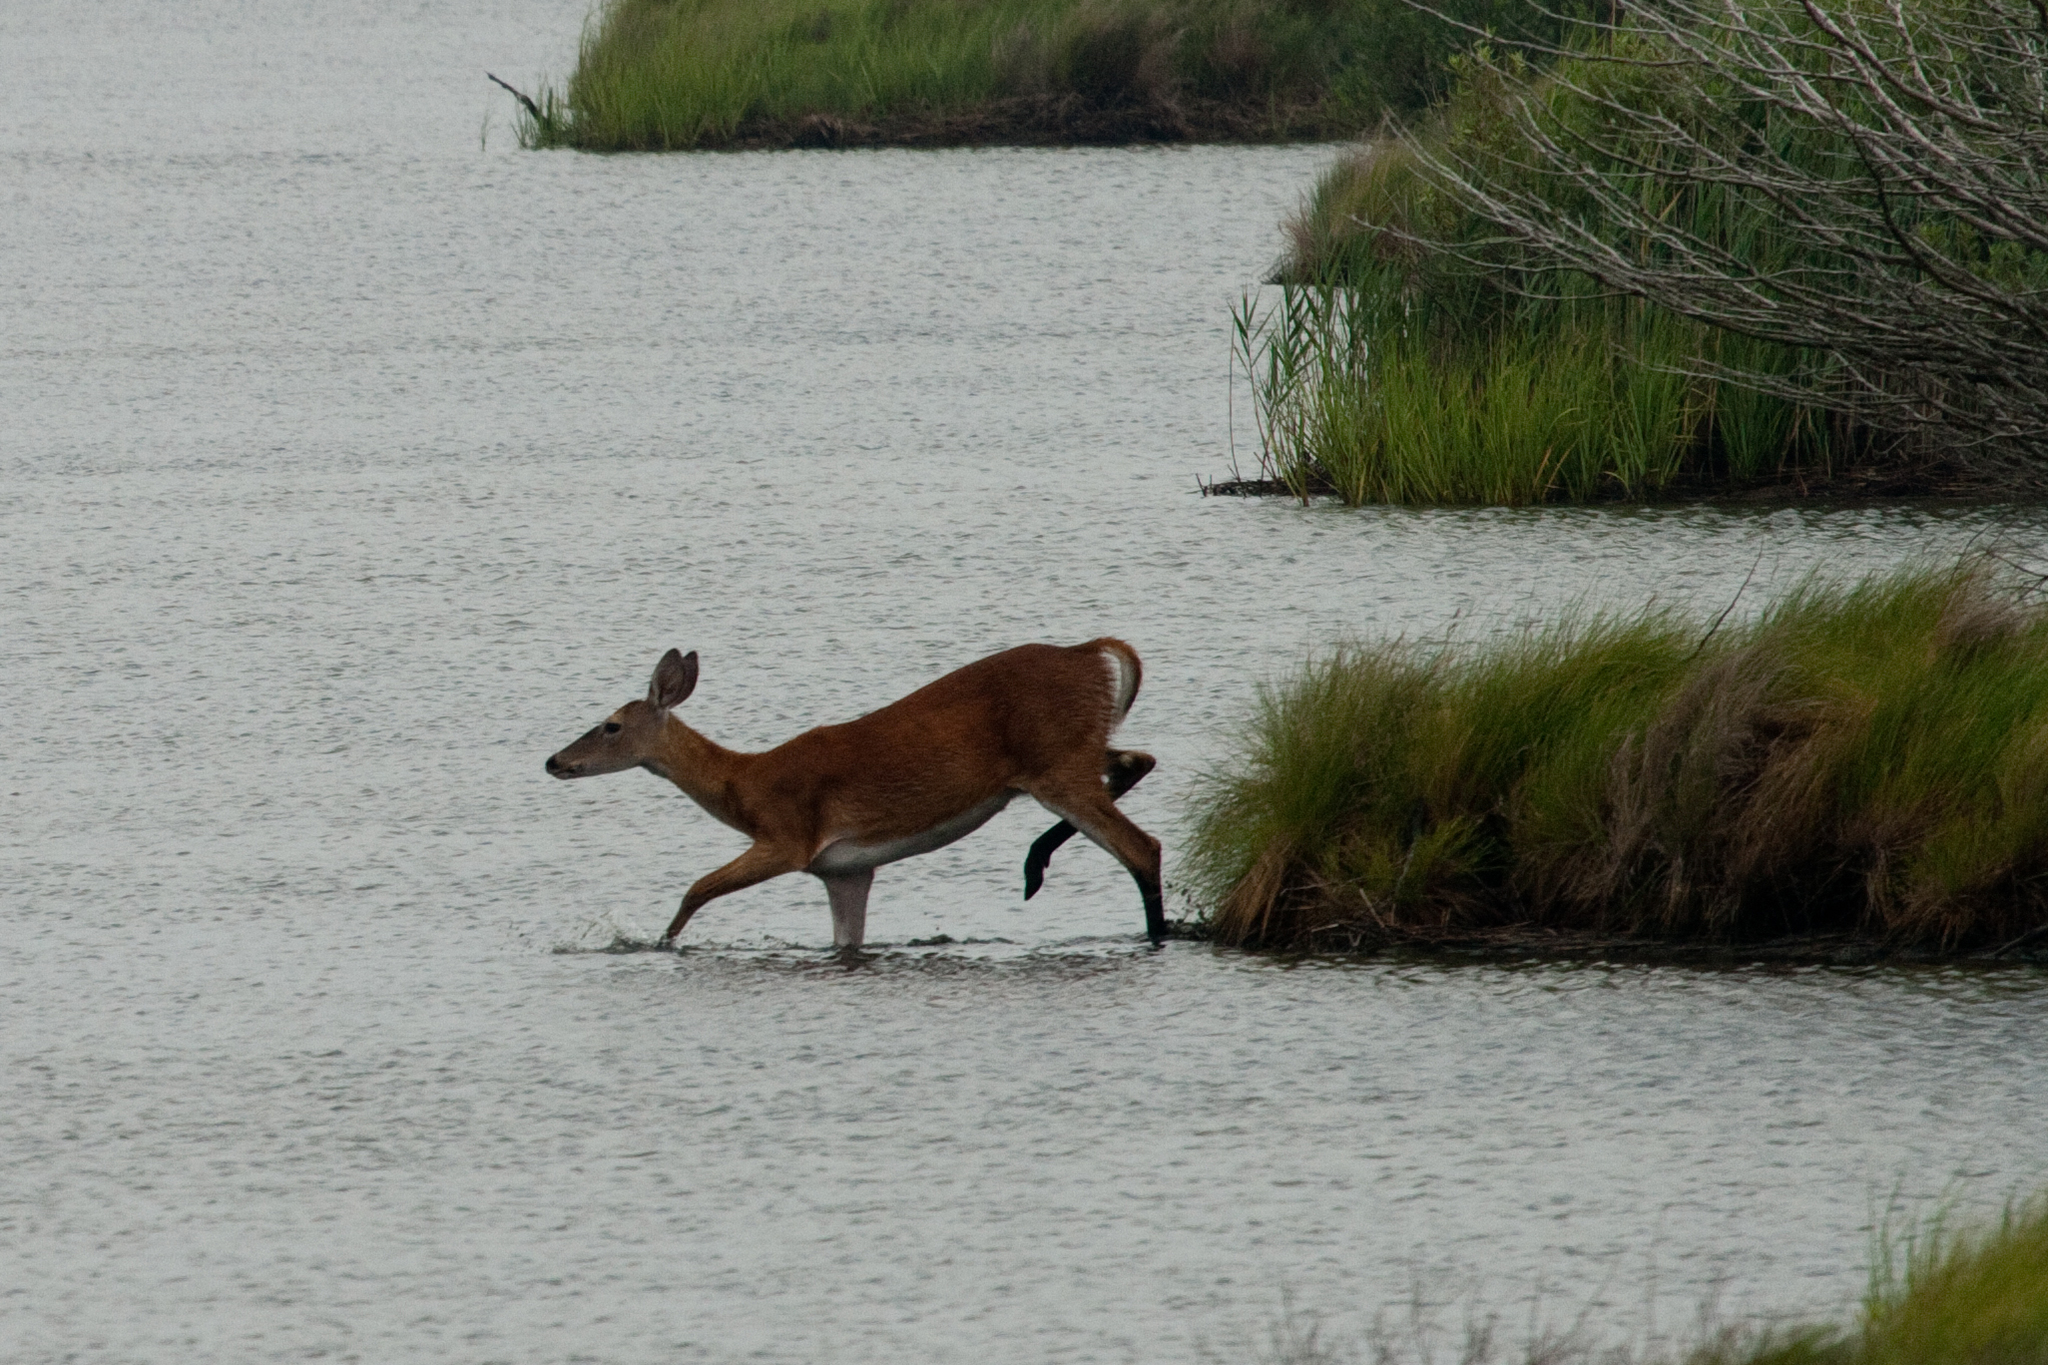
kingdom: Animalia
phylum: Chordata
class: Mammalia
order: Artiodactyla
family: Cervidae
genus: Odocoileus
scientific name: Odocoileus virginianus
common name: White-tailed deer
